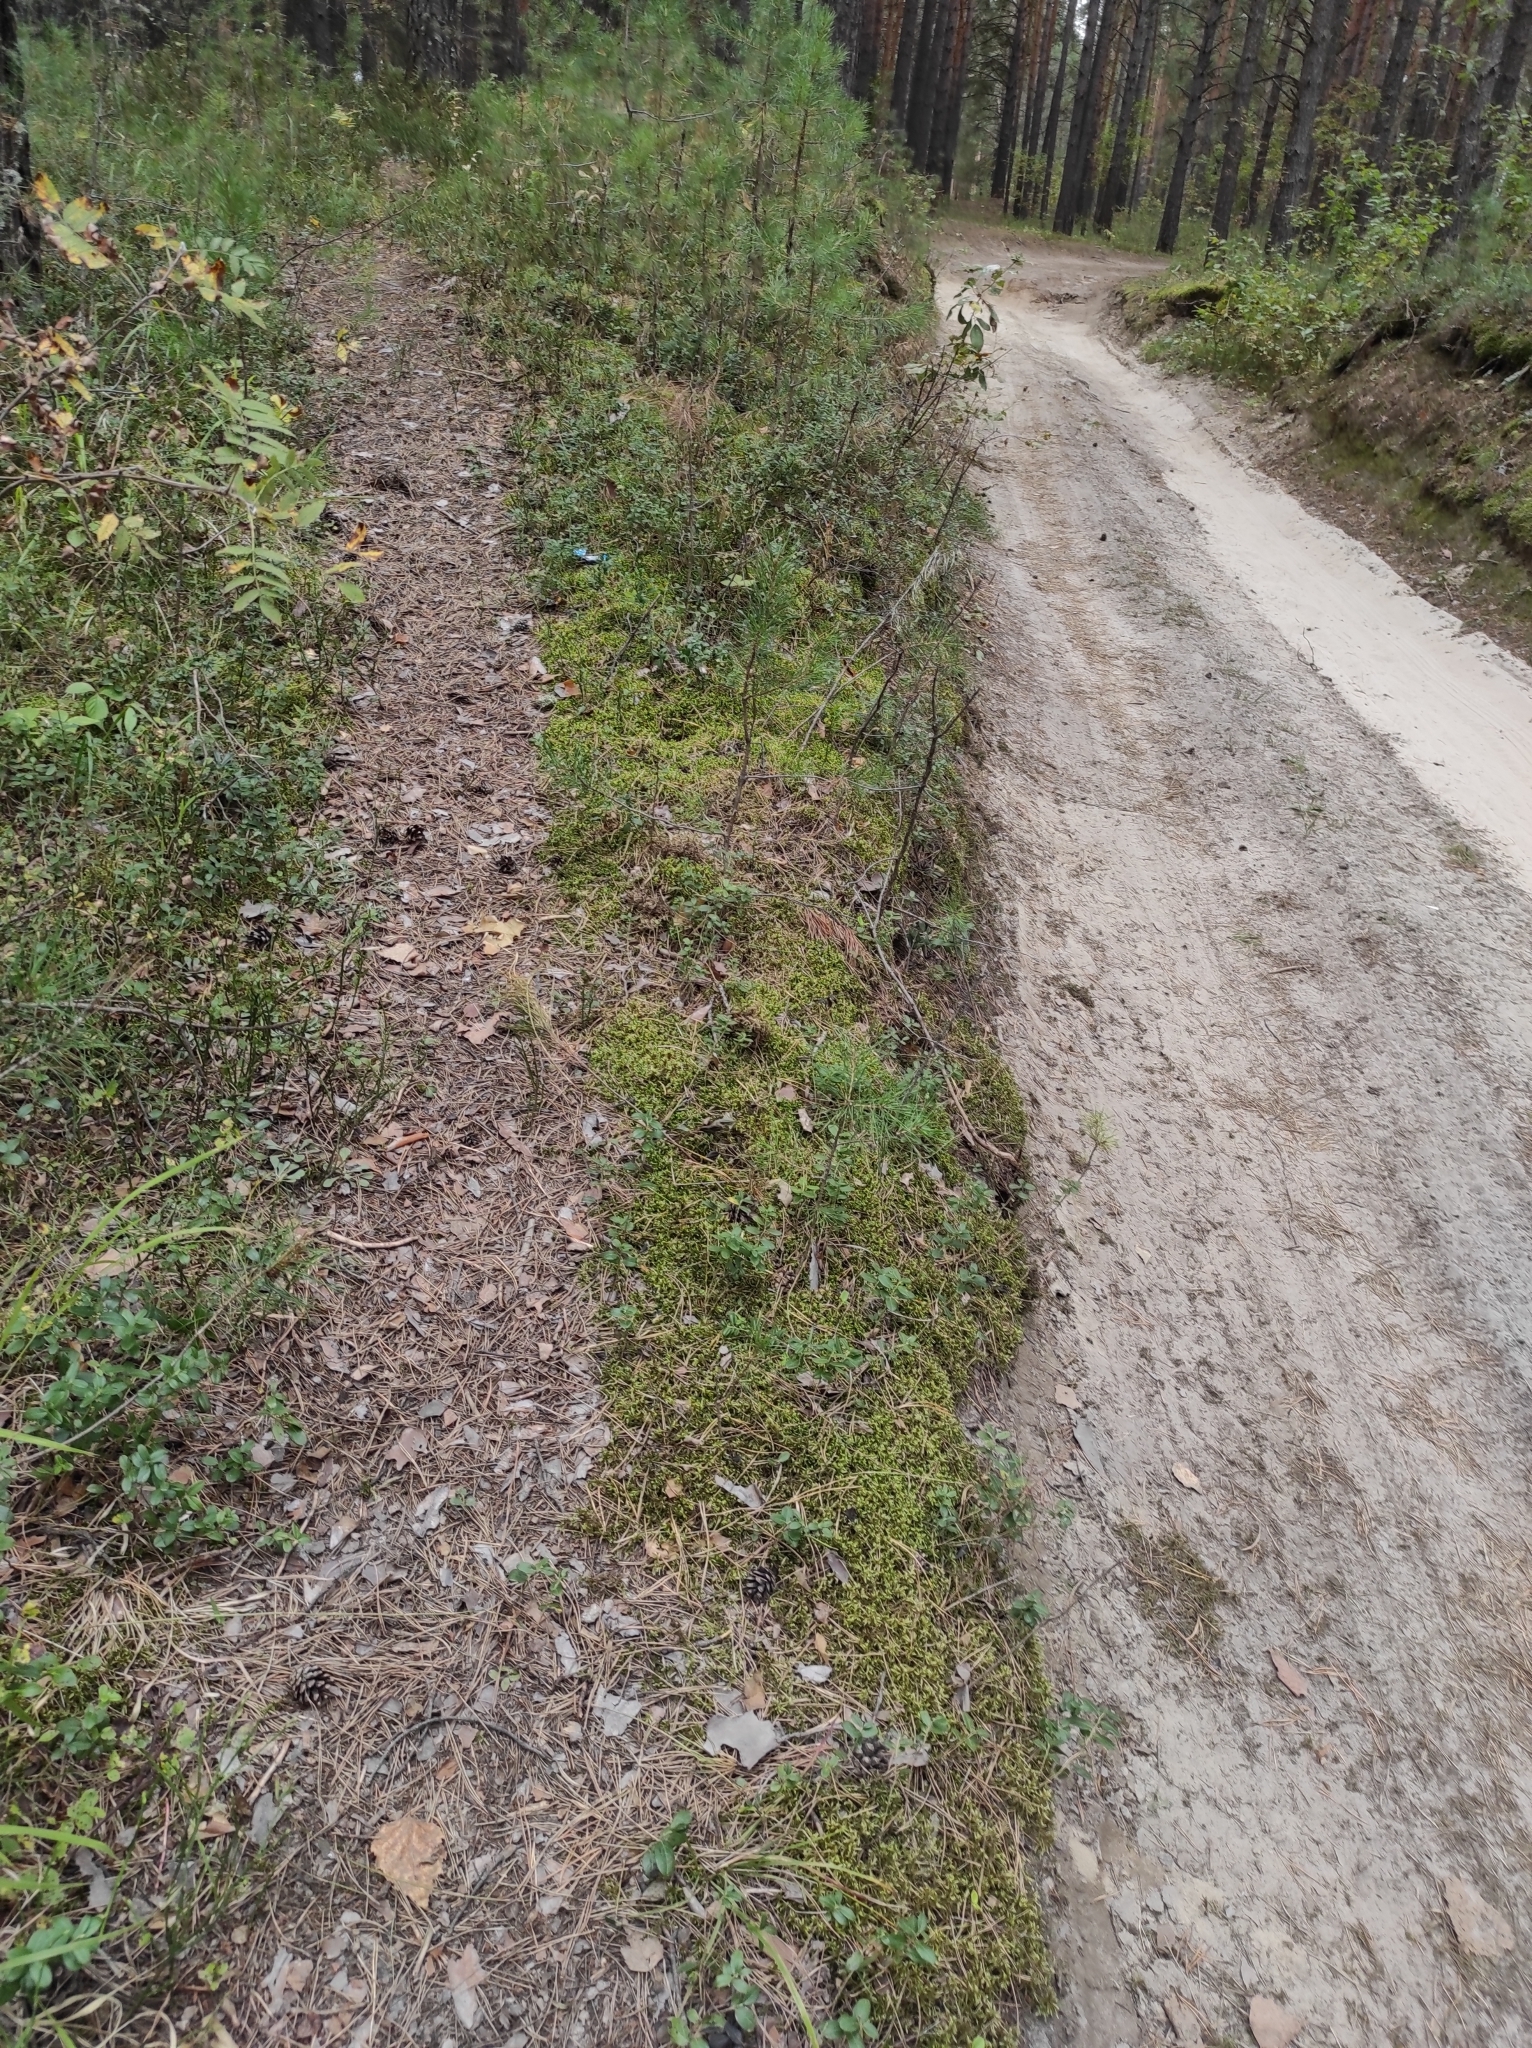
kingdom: Plantae
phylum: Tracheophyta
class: Magnoliopsida
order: Ericales
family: Ericaceae
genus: Vaccinium
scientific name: Vaccinium myrtillus
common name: Bilberry
